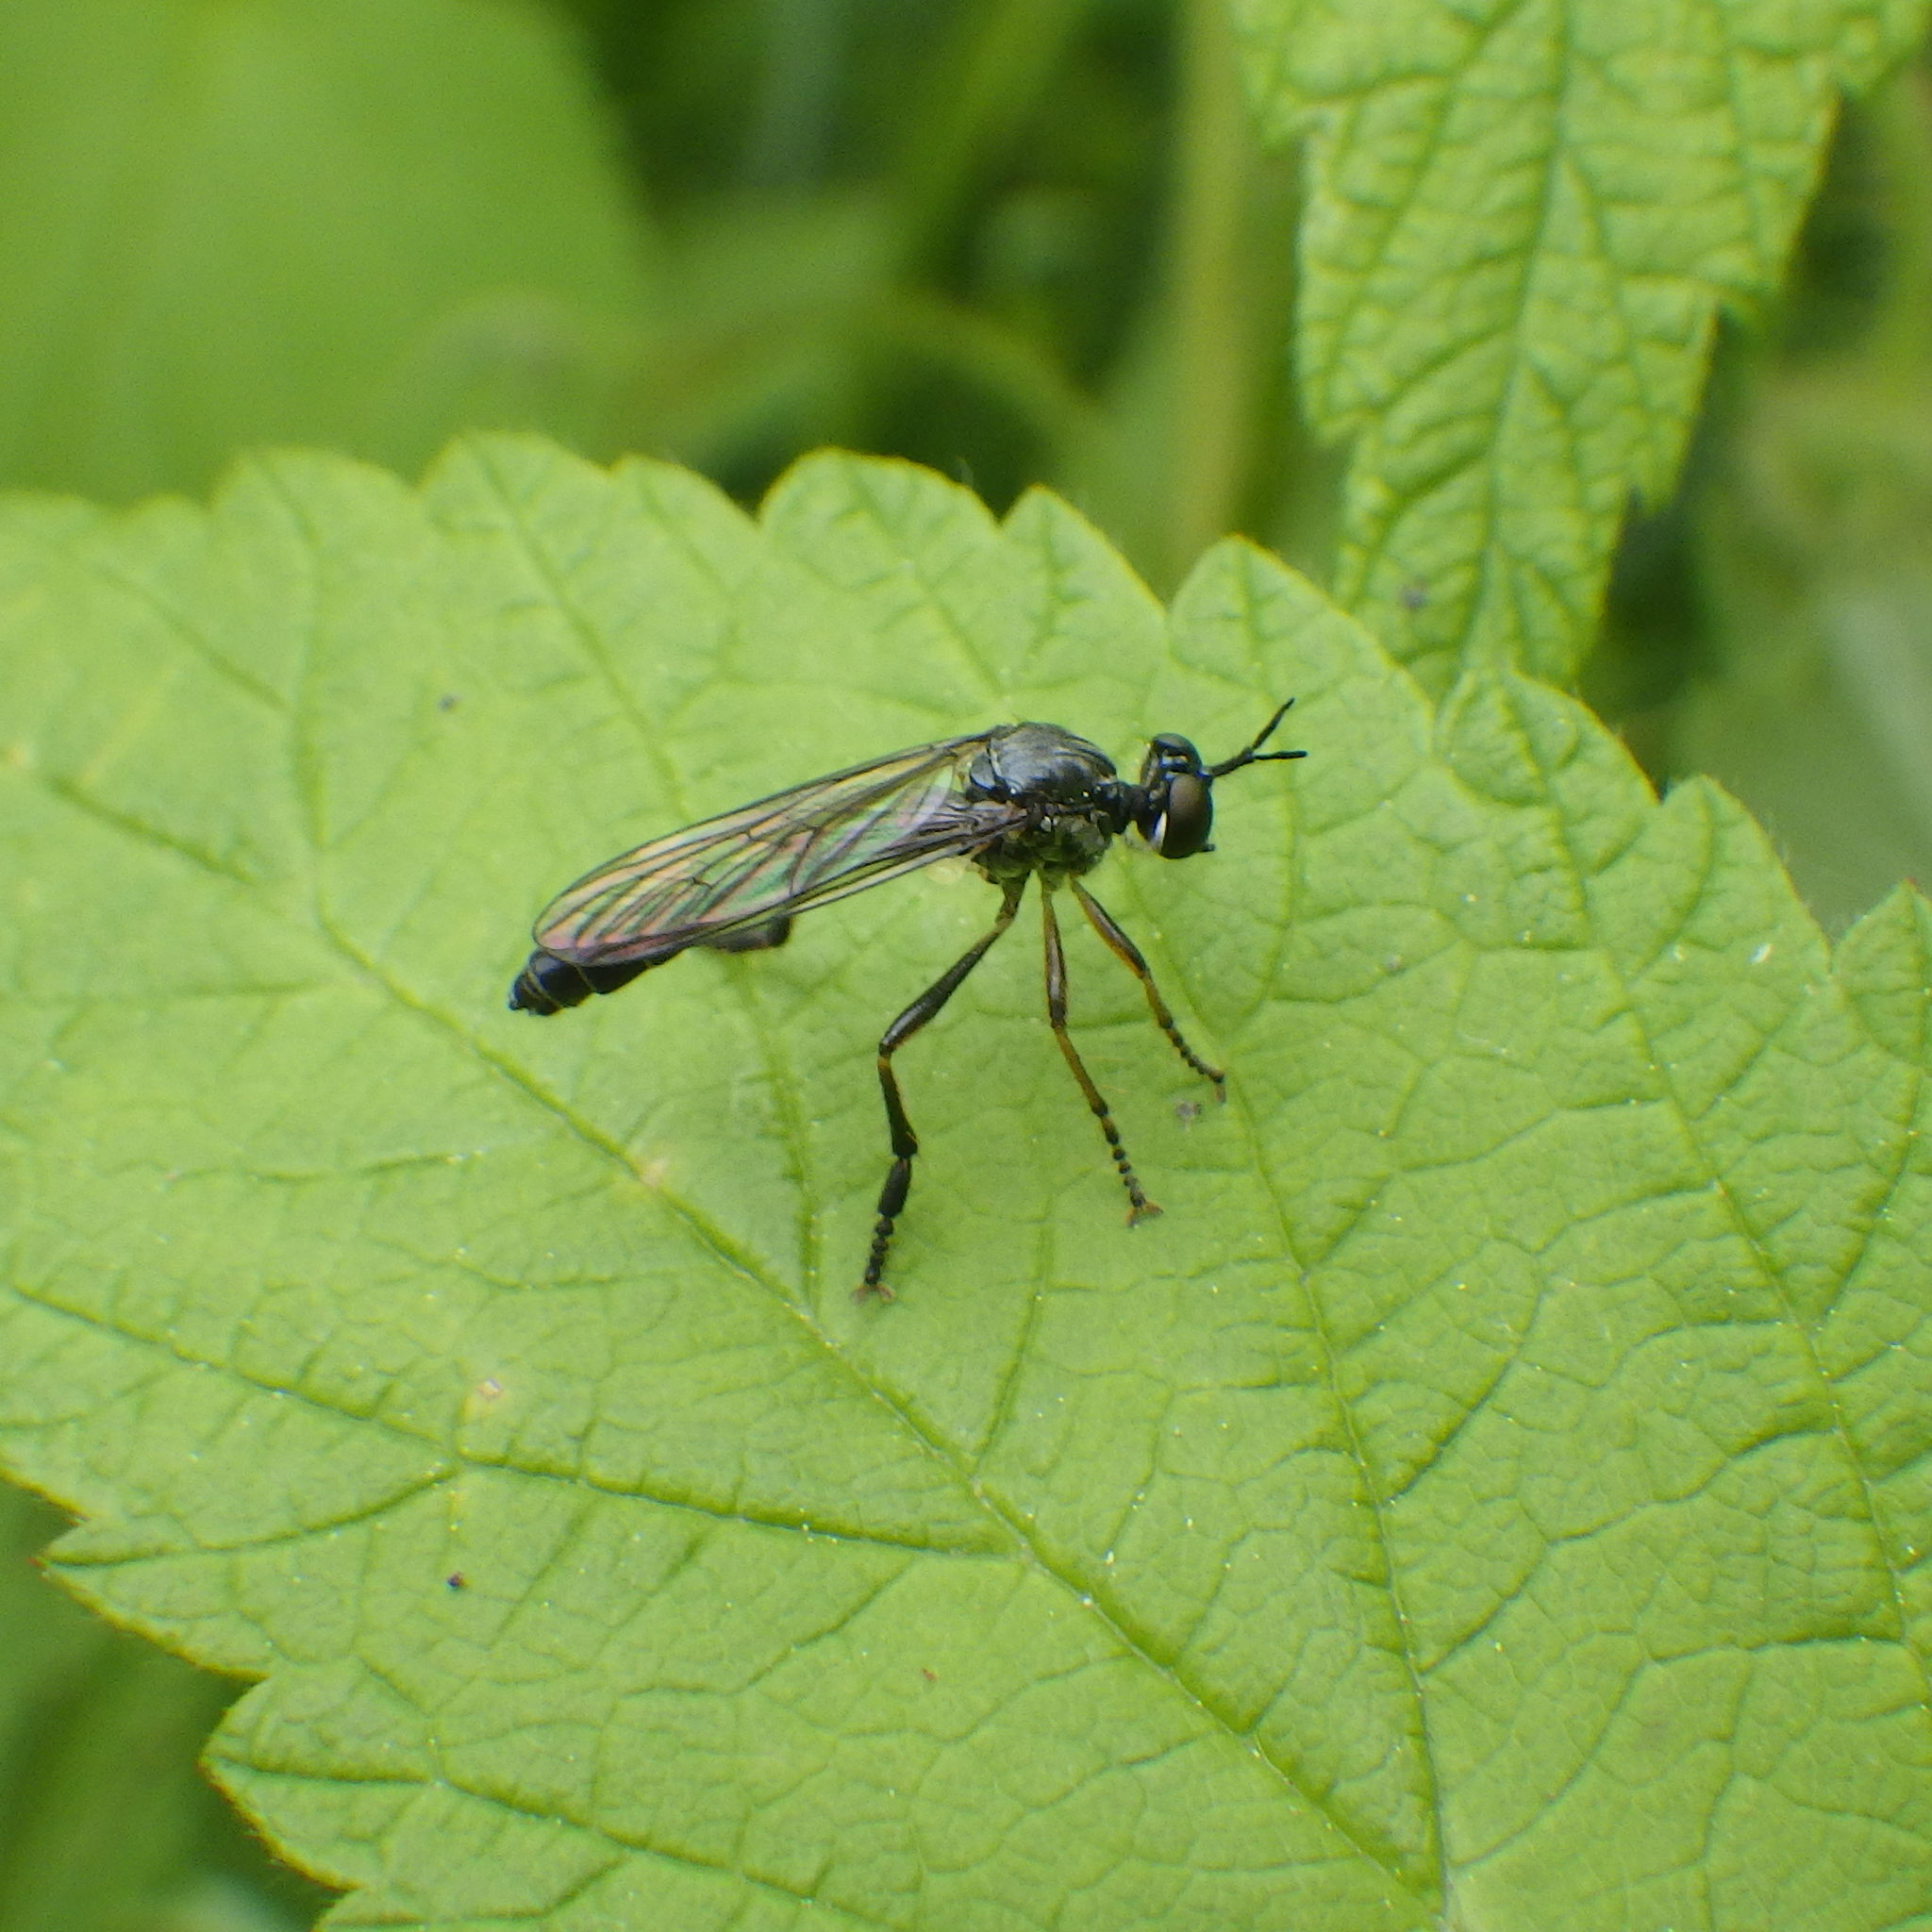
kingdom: Animalia
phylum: Arthropoda
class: Insecta
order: Diptera
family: Asilidae
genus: Dioctria
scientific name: Dioctria hyalipennis
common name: Stripe-legged robberfly
